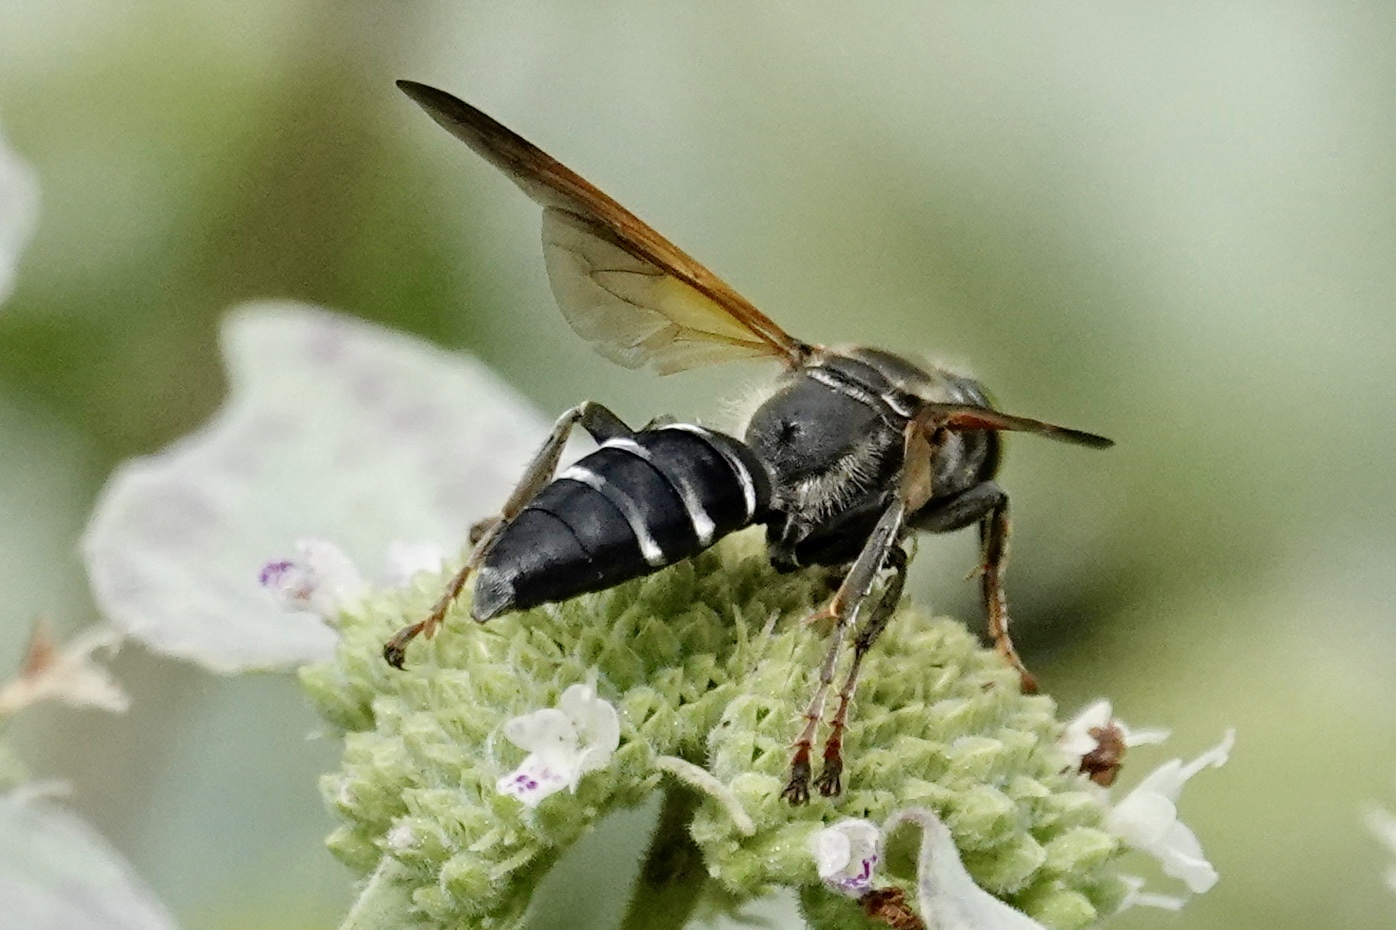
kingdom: Animalia
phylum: Arthropoda
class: Insecta
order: Hymenoptera
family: Crabronidae
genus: Tachytes
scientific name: Tachytes guatemalensis
